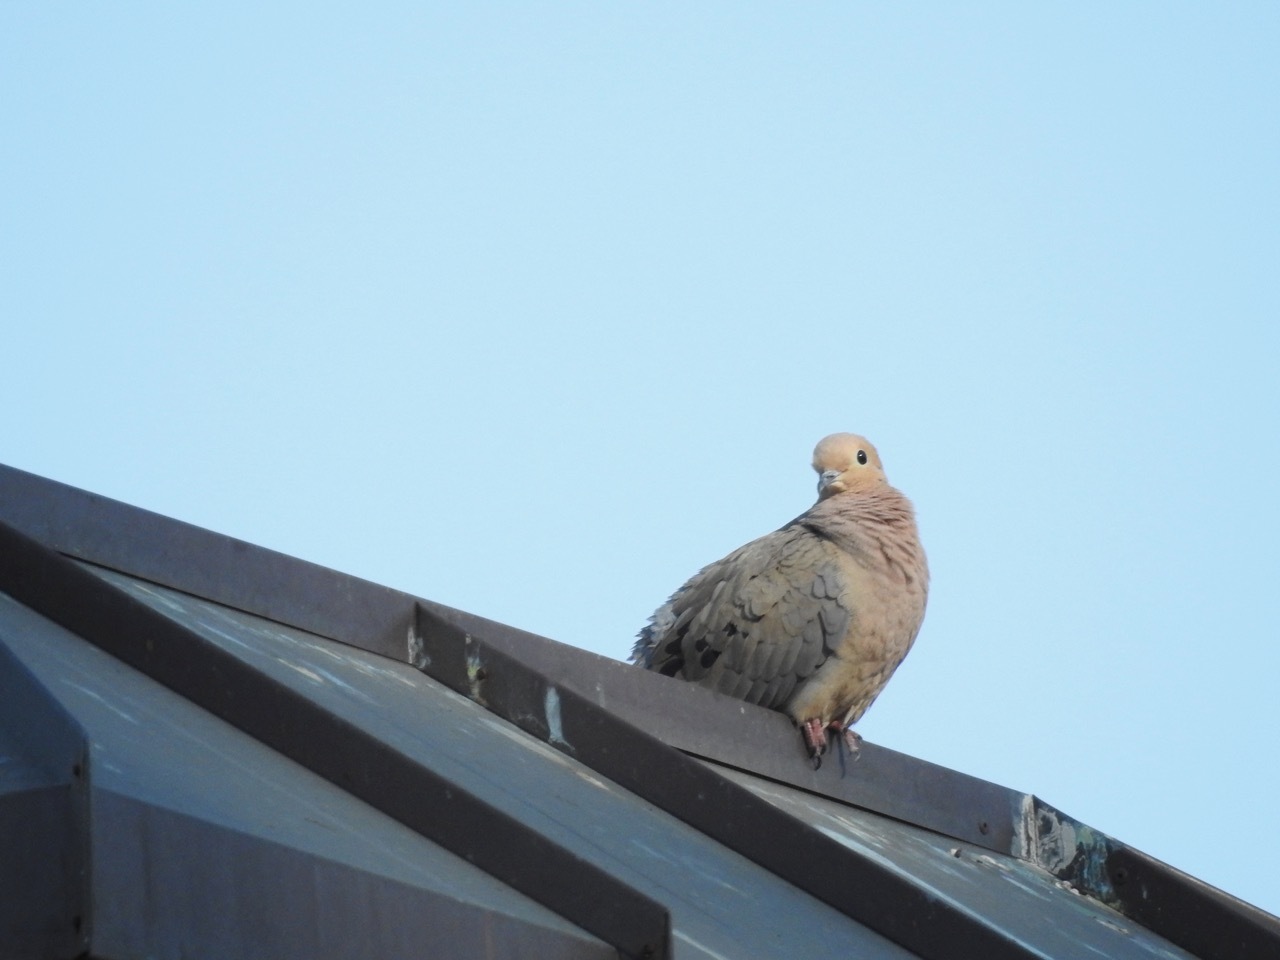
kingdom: Animalia
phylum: Chordata
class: Aves
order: Columbiformes
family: Columbidae
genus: Zenaida
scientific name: Zenaida macroura
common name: Mourning dove
